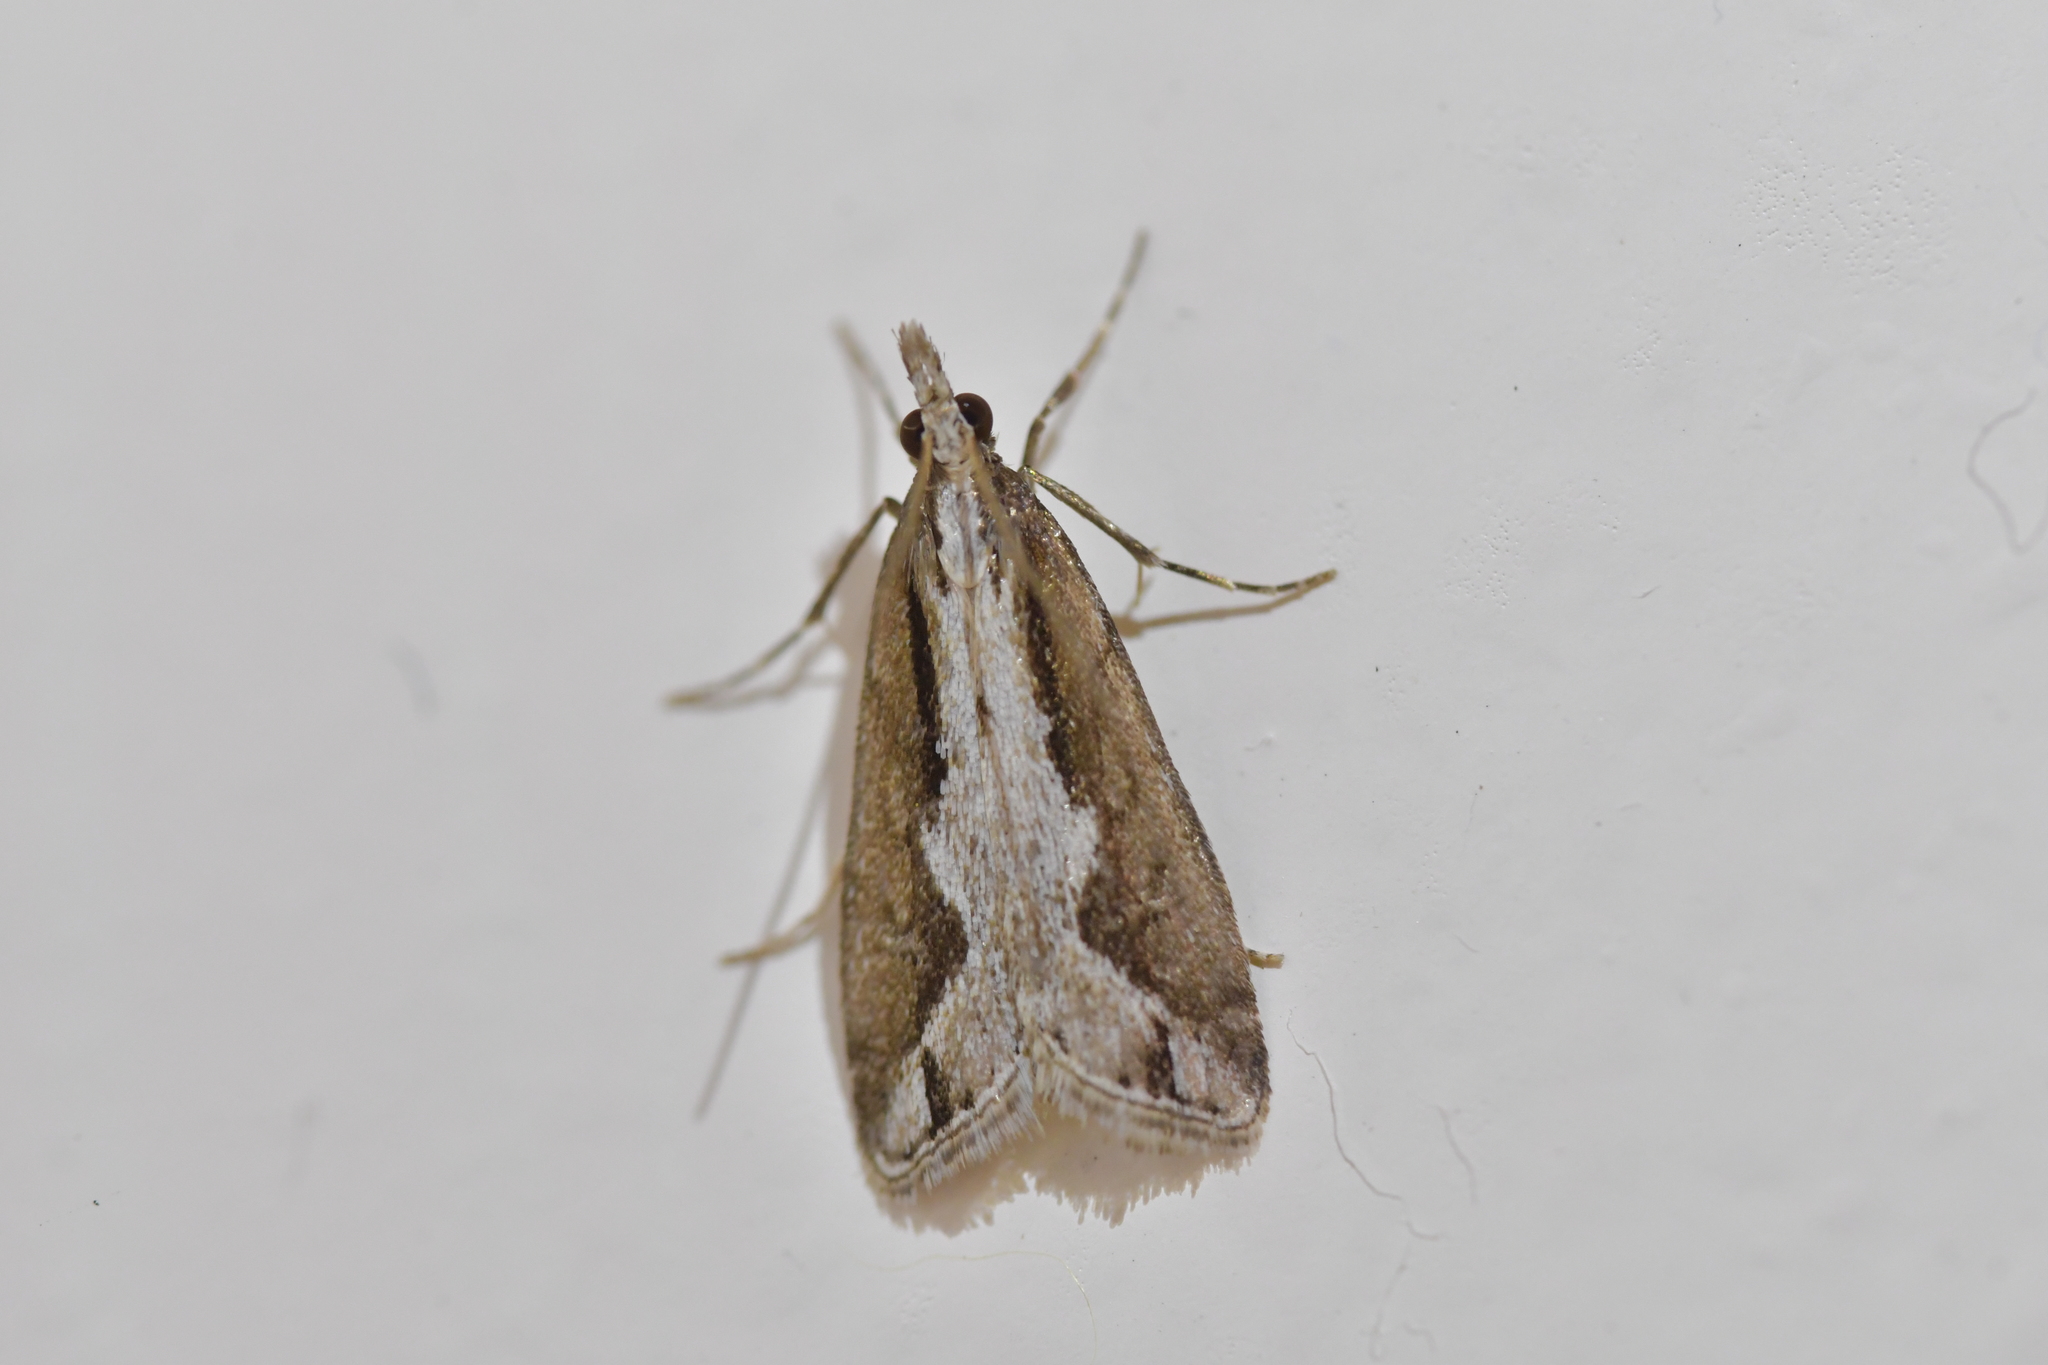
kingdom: Animalia
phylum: Arthropoda
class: Insecta
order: Lepidoptera
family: Crambidae
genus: Eudonia
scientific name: Eudonia steropaea
